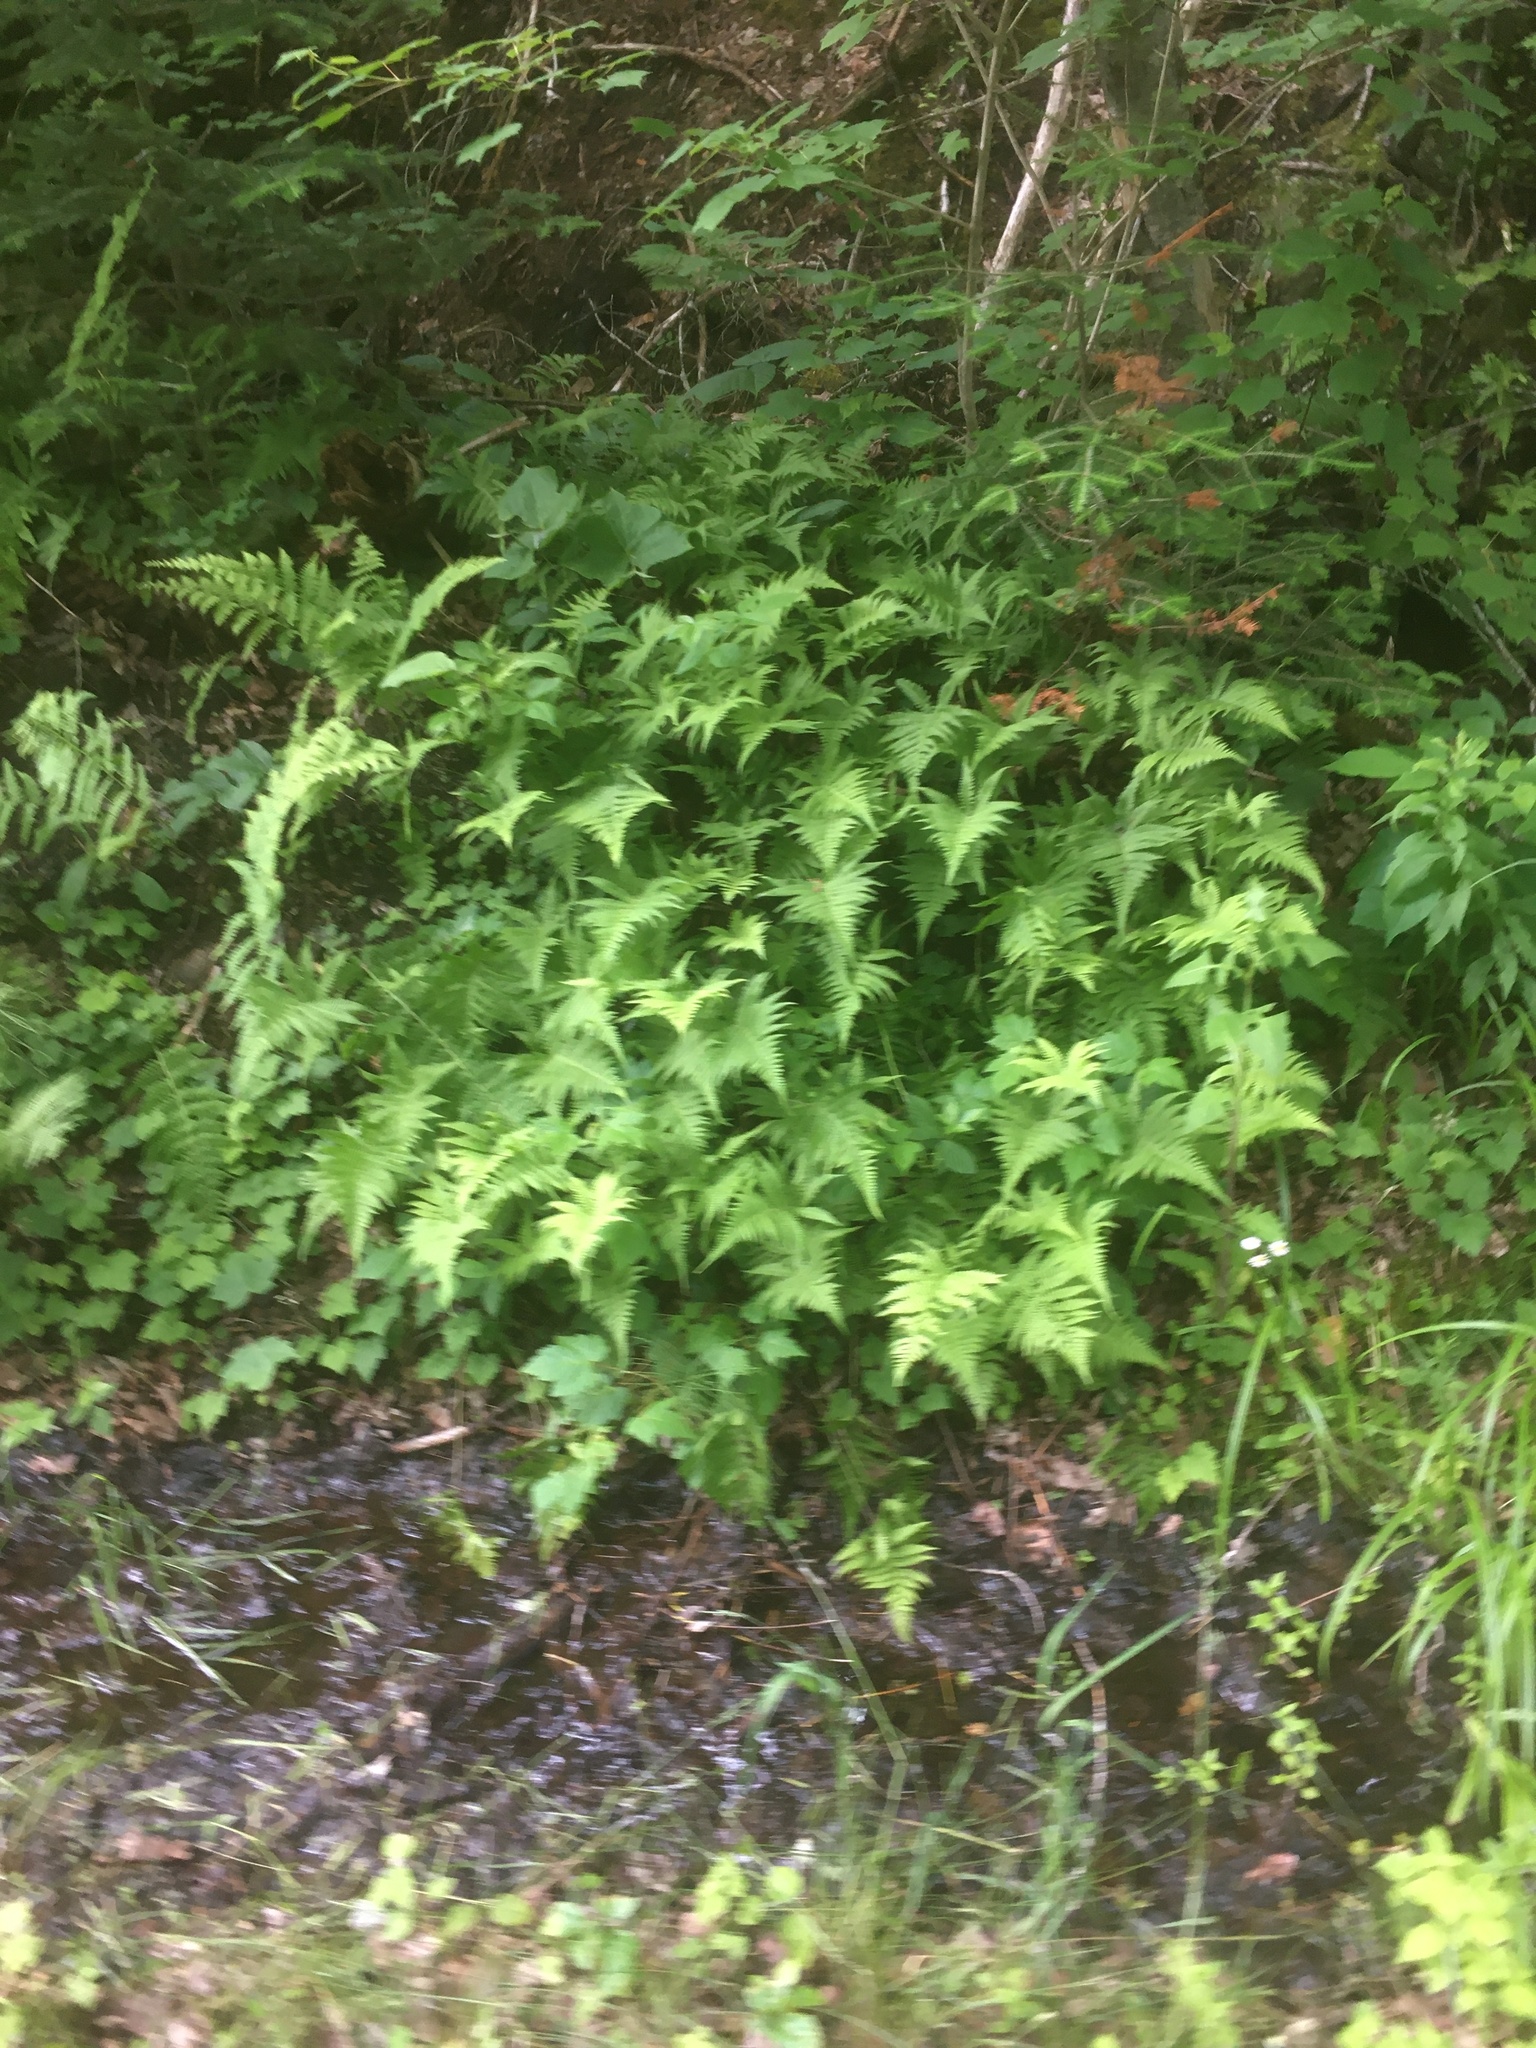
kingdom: Plantae
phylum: Tracheophyta
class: Polypodiopsida
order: Polypodiales
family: Thelypteridaceae
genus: Phegopteris
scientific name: Phegopteris connectilis
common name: Beech fern
